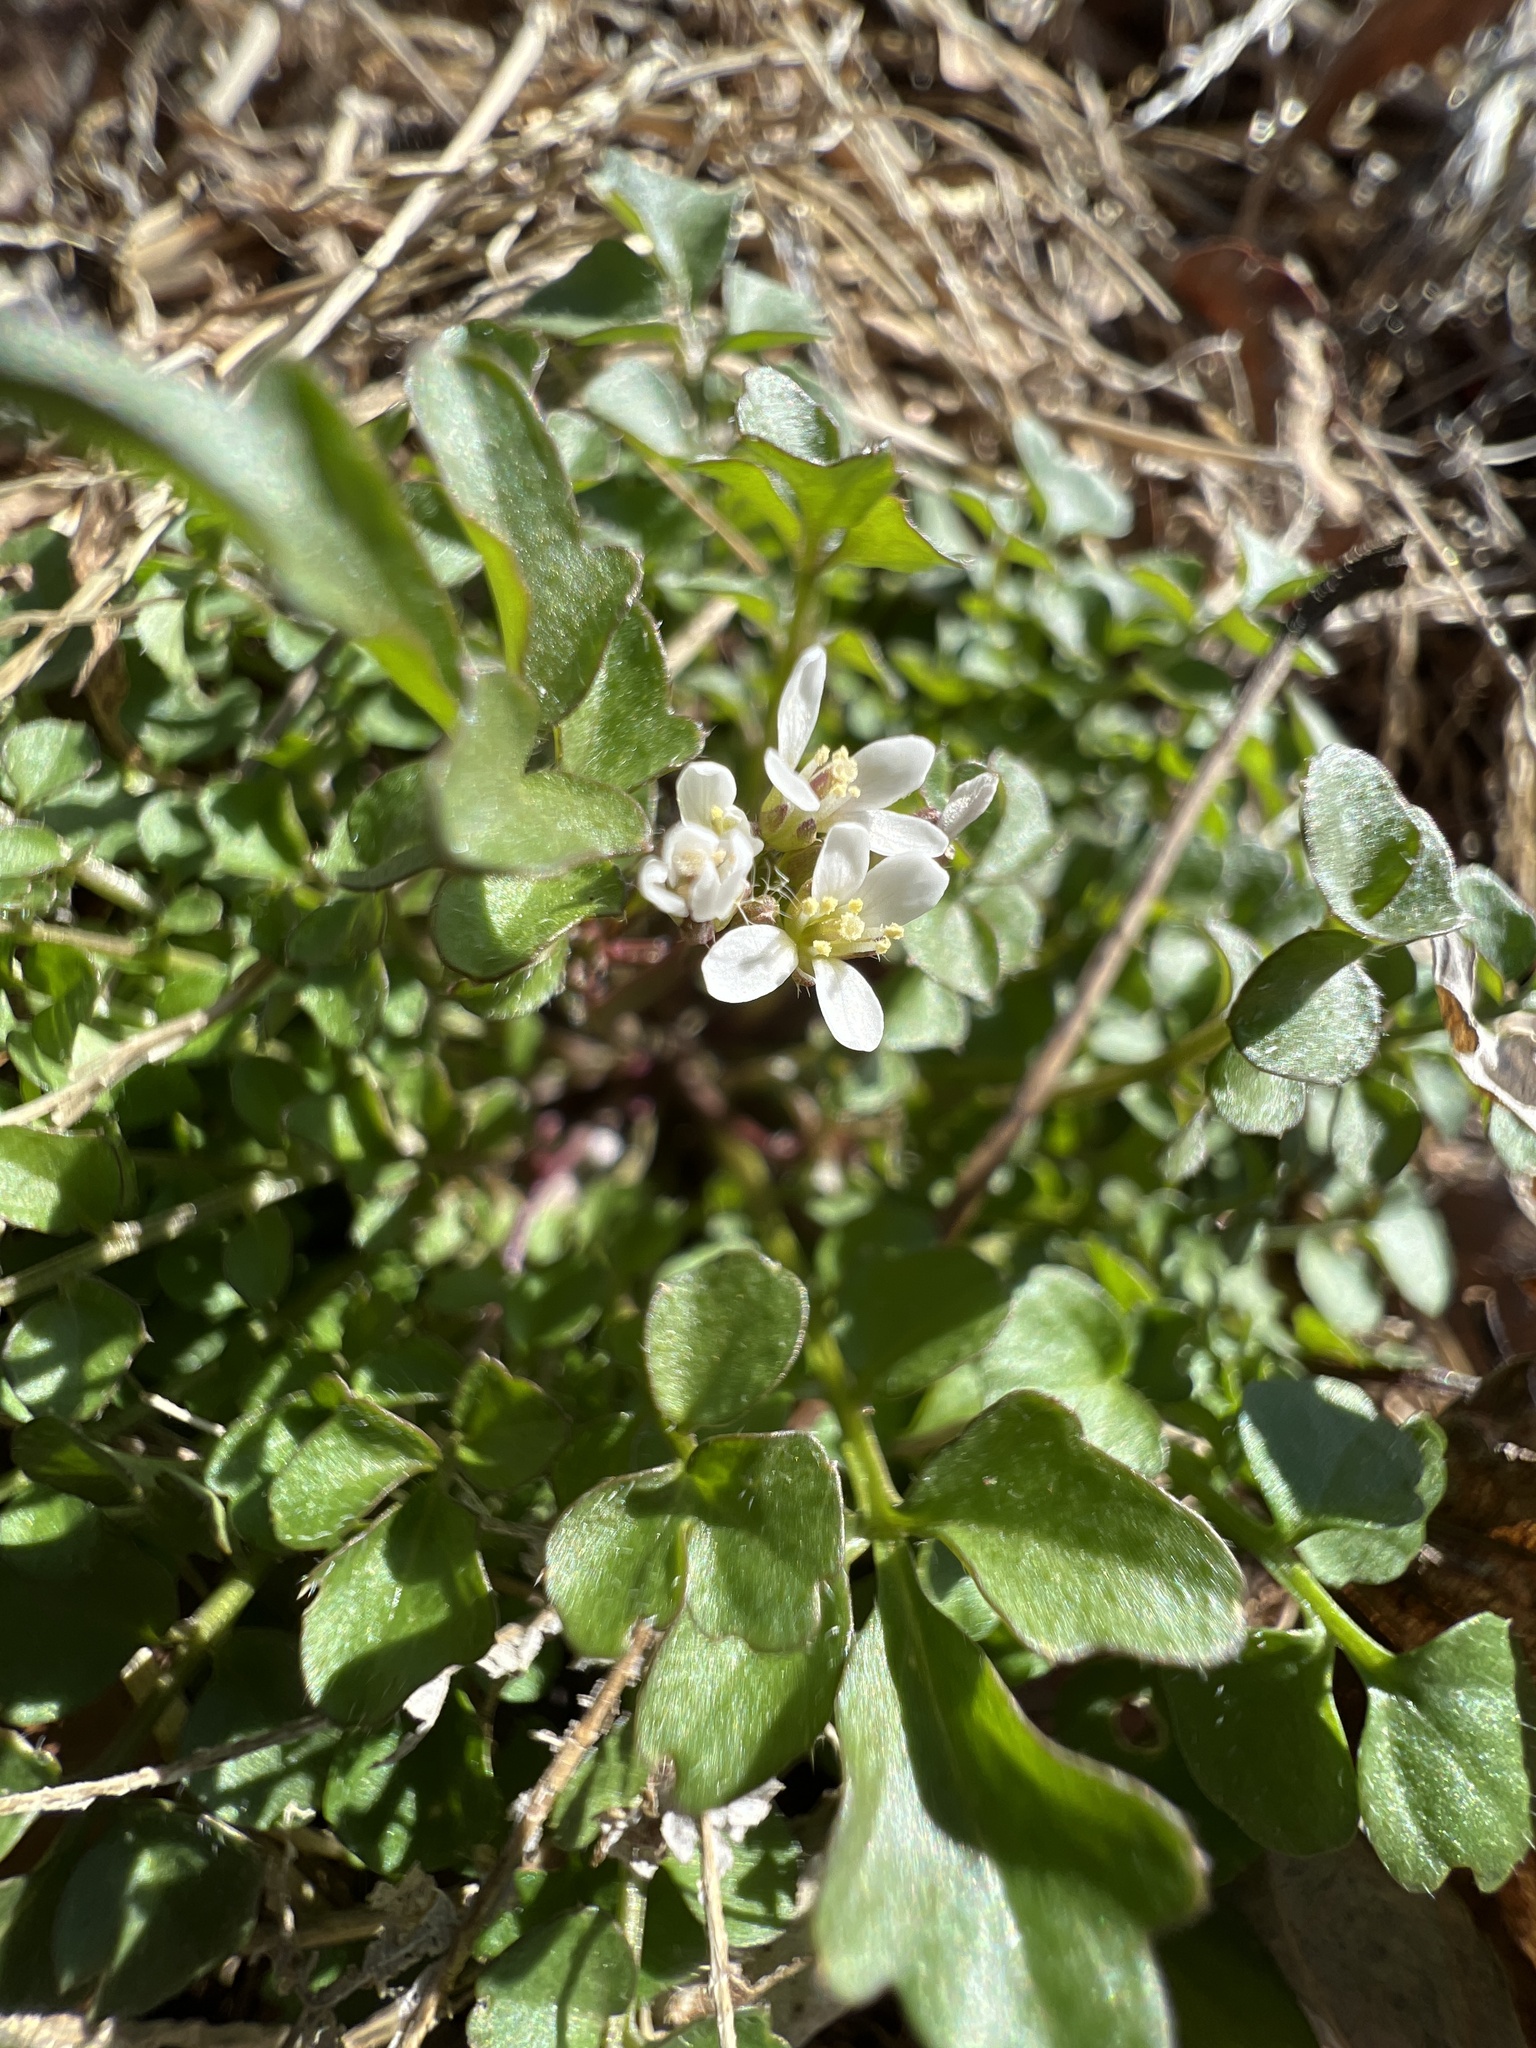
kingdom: Plantae
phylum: Tracheophyta
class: Magnoliopsida
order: Brassicales
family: Brassicaceae
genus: Cardamine
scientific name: Cardamine hirsuta
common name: Hairy bittercress
